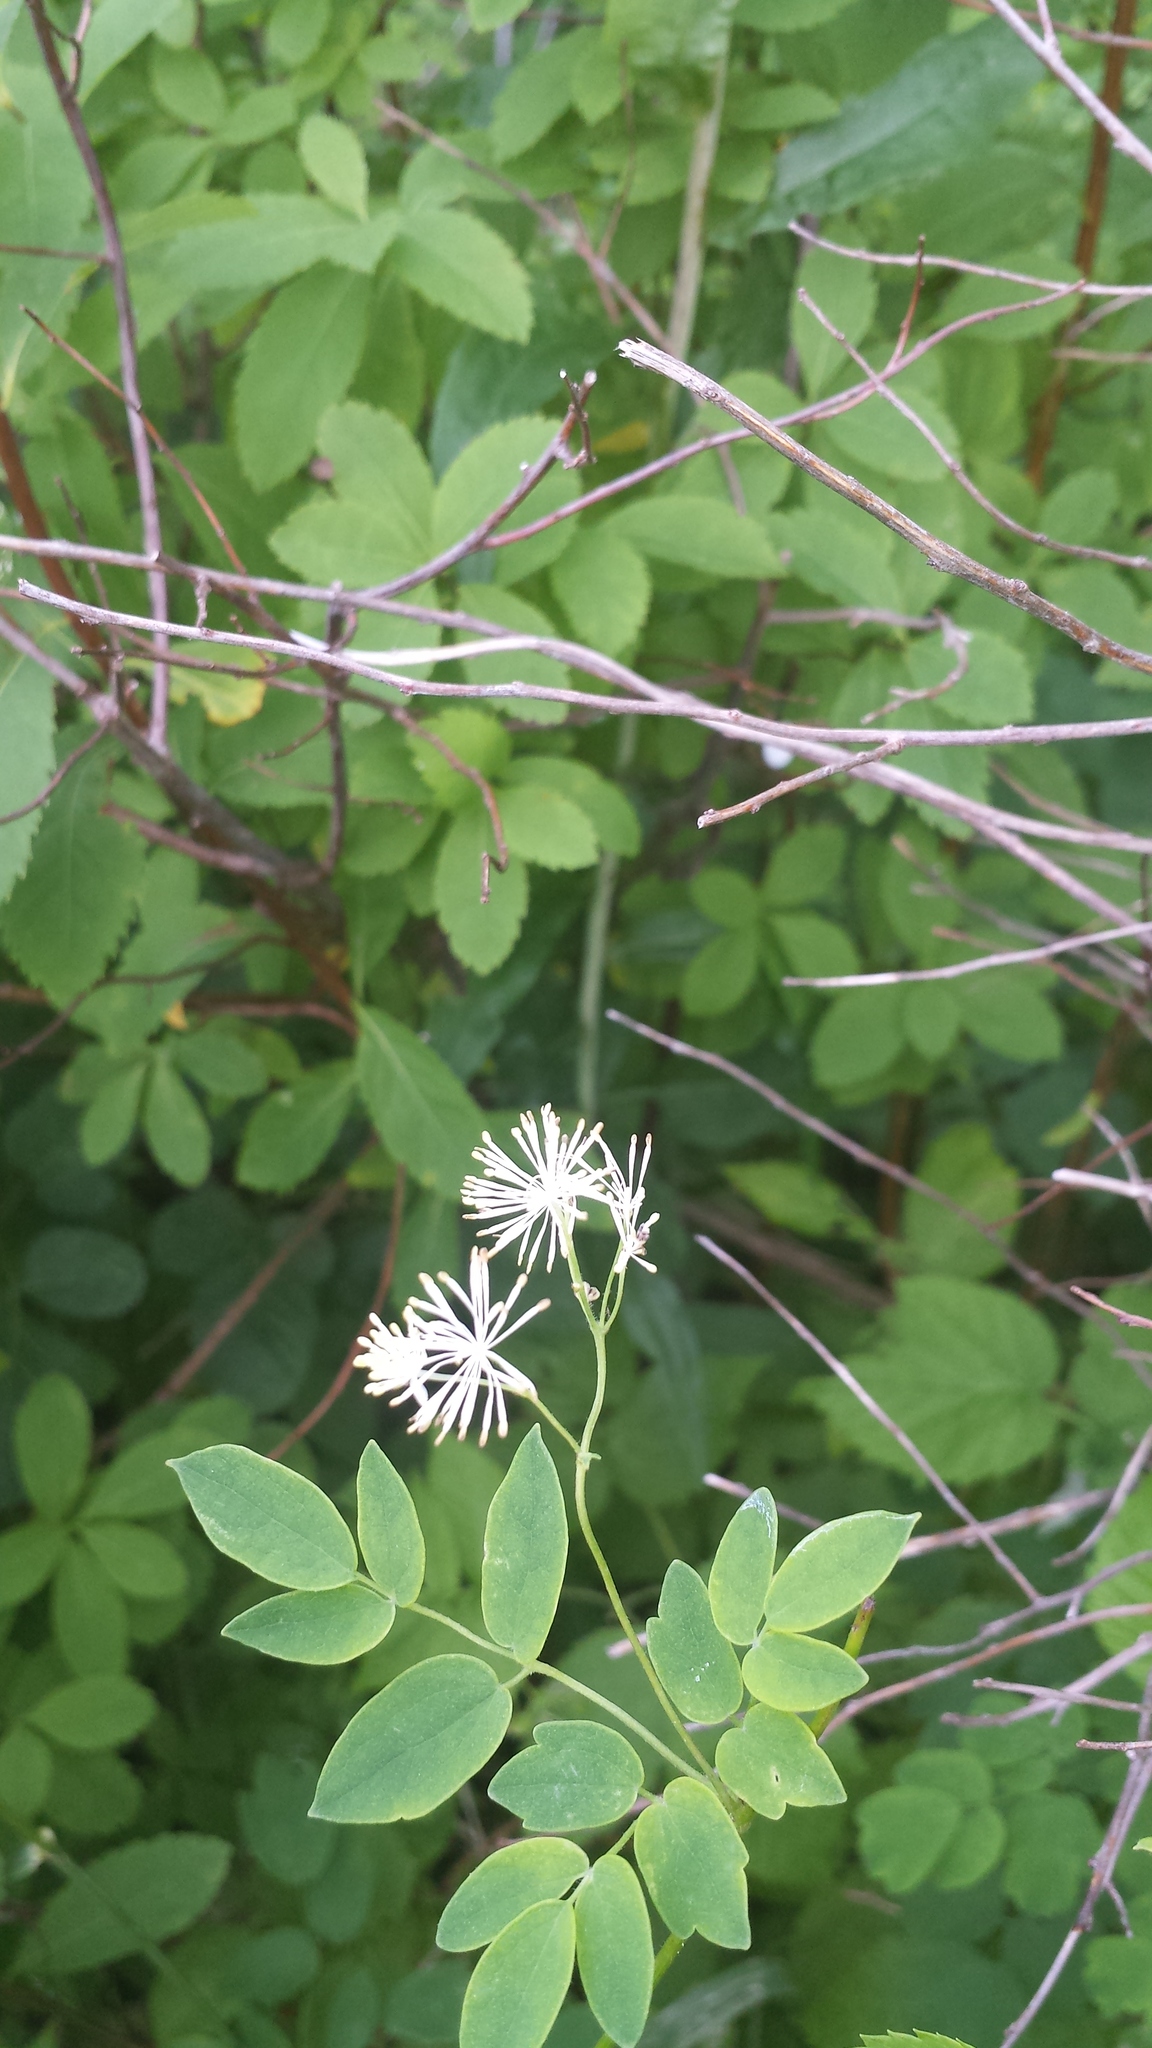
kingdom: Plantae
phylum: Tracheophyta
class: Magnoliopsida
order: Ranunculales
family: Ranunculaceae
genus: Thalictrum
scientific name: Thalictrum pubescens
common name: King-of-the-meadow
